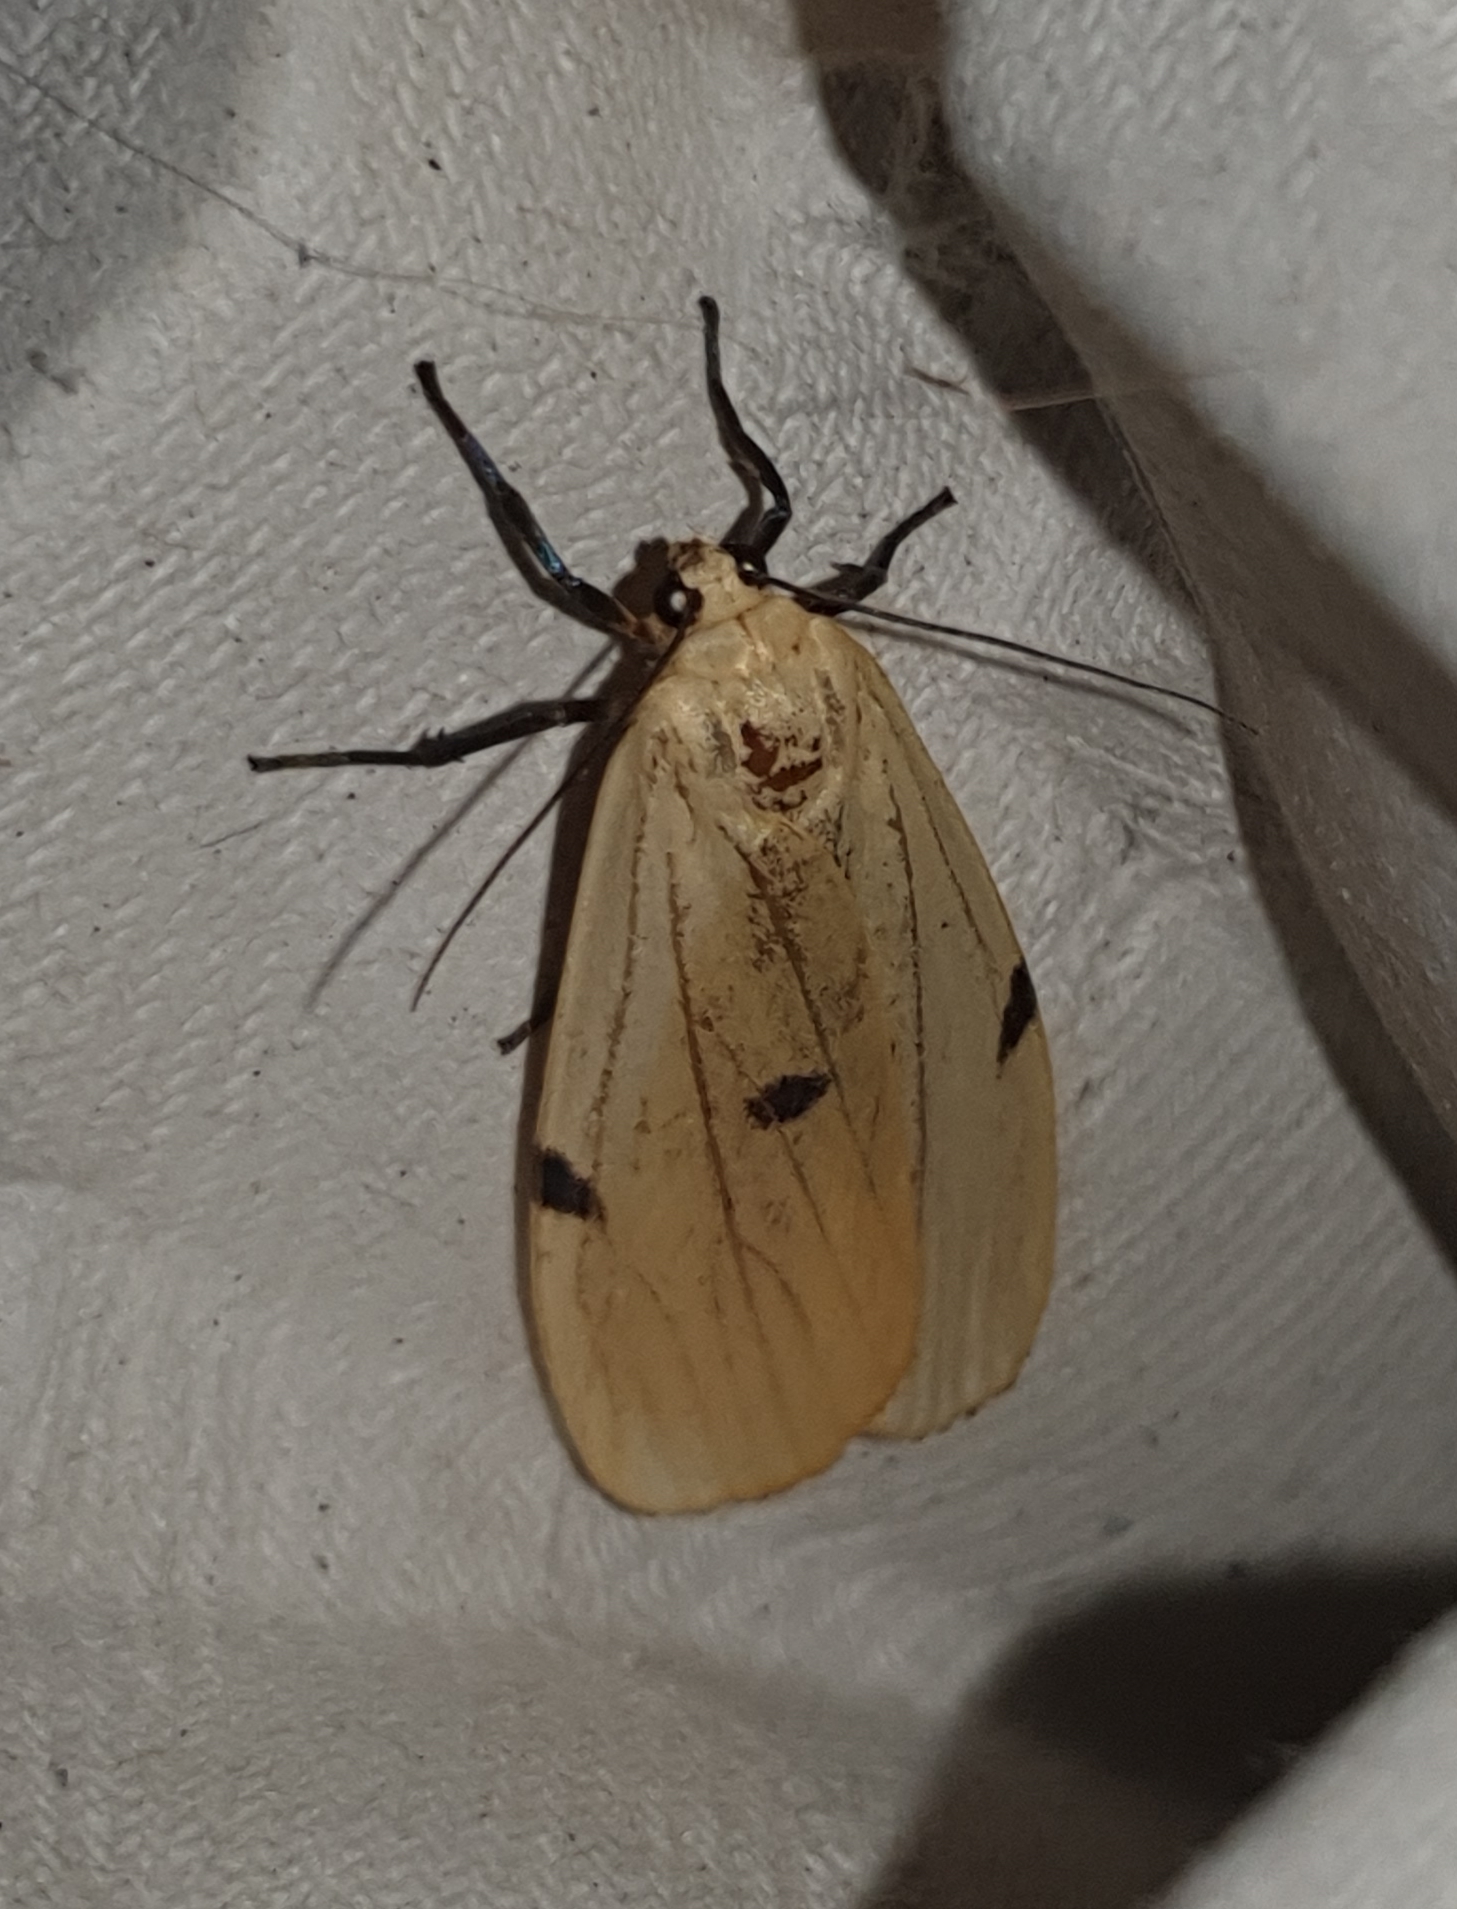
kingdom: Animalia
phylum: Arthropoda
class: Insecta
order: Lepidoptera
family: Erebidae
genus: Lithosia
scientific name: Lithosia quadra
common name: Four-spotted footman
